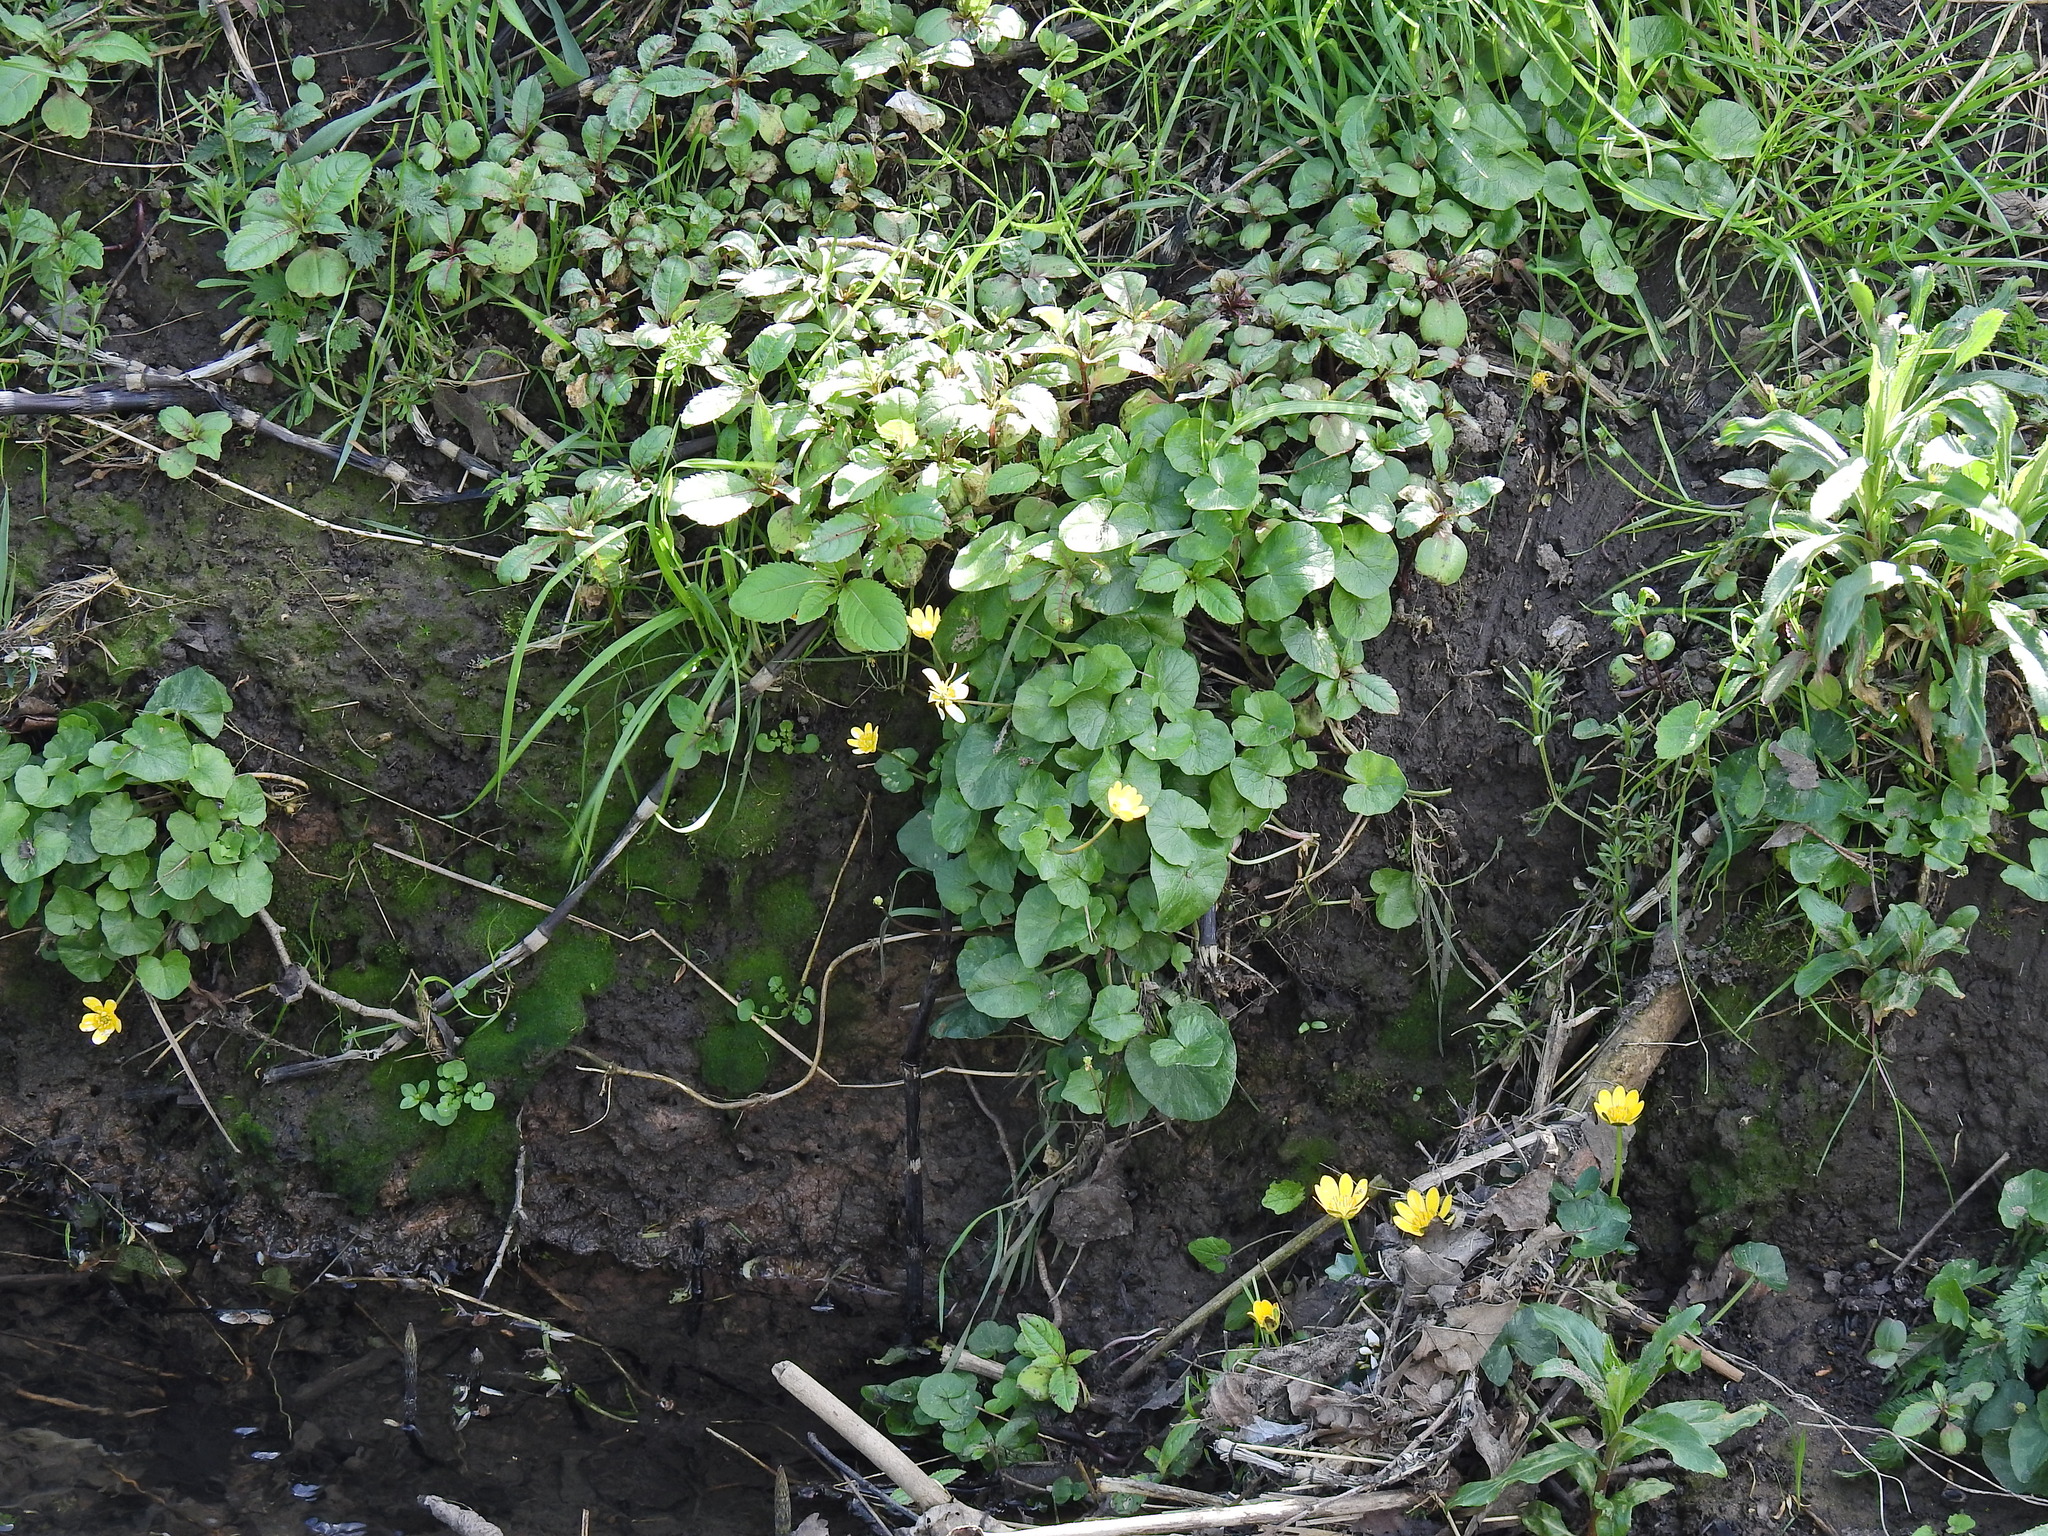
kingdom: Plantae
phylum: Tracheophyta
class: Magnoliopsida
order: Ranunculales
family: Ranunculaceae
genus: Ficaria
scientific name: Ficaria verna
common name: Lesser celandine
